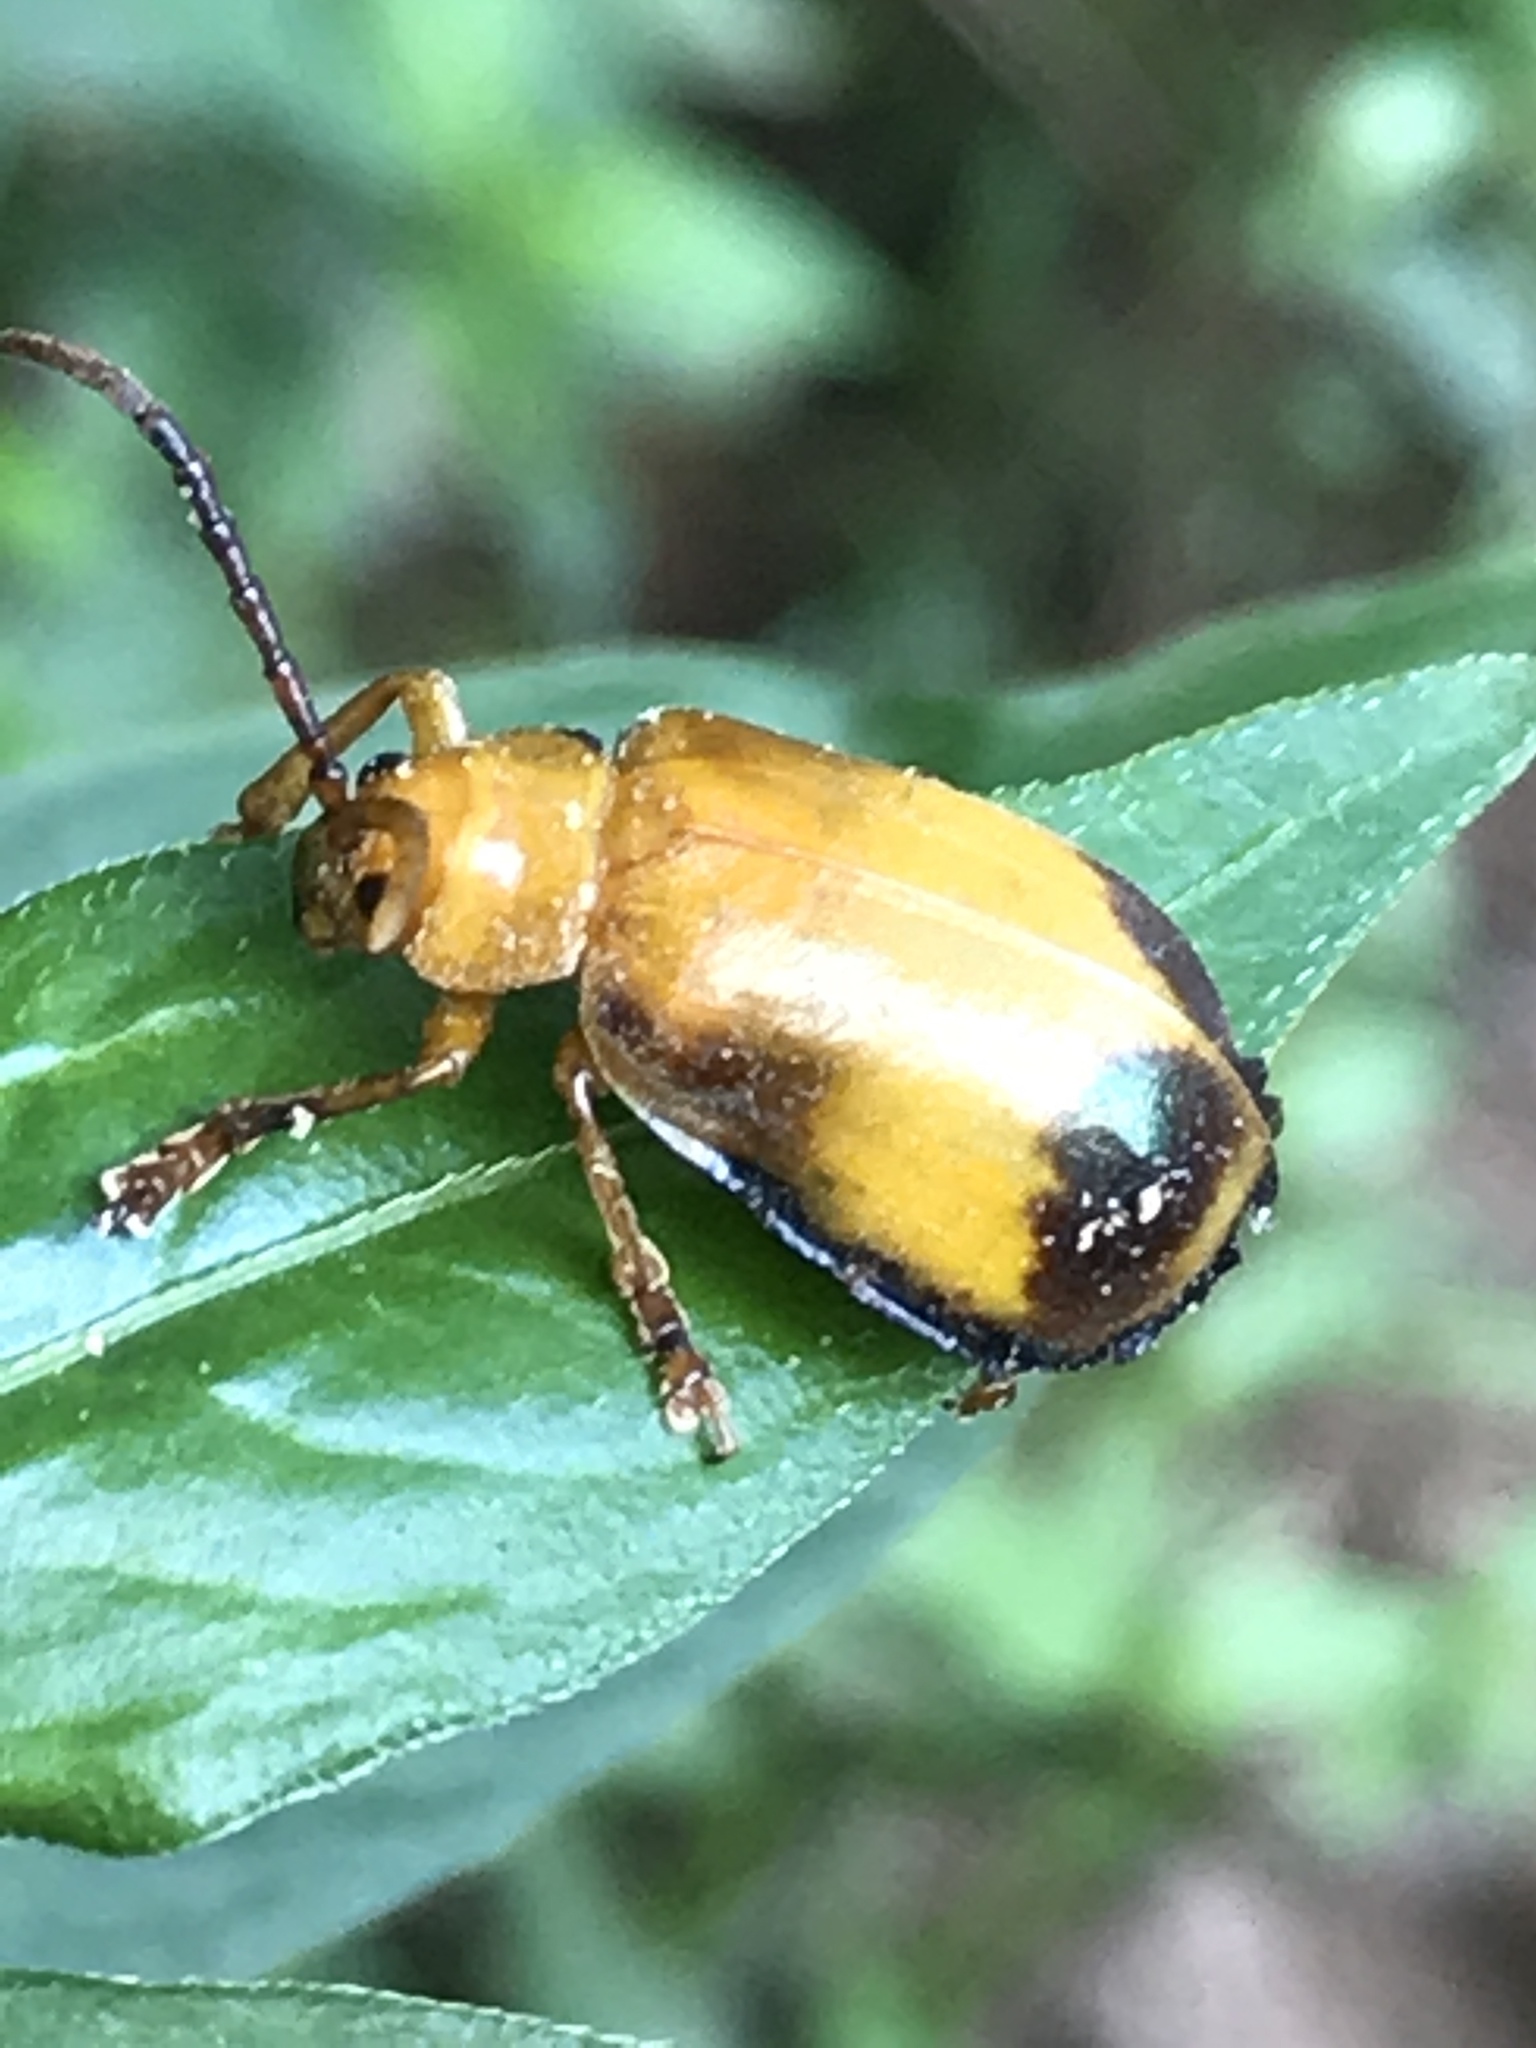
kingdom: Animalia
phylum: Arthropoda
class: Insecta
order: Coleoptera
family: Chrysomelidae
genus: Monocesta
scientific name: Monocesta coryli
